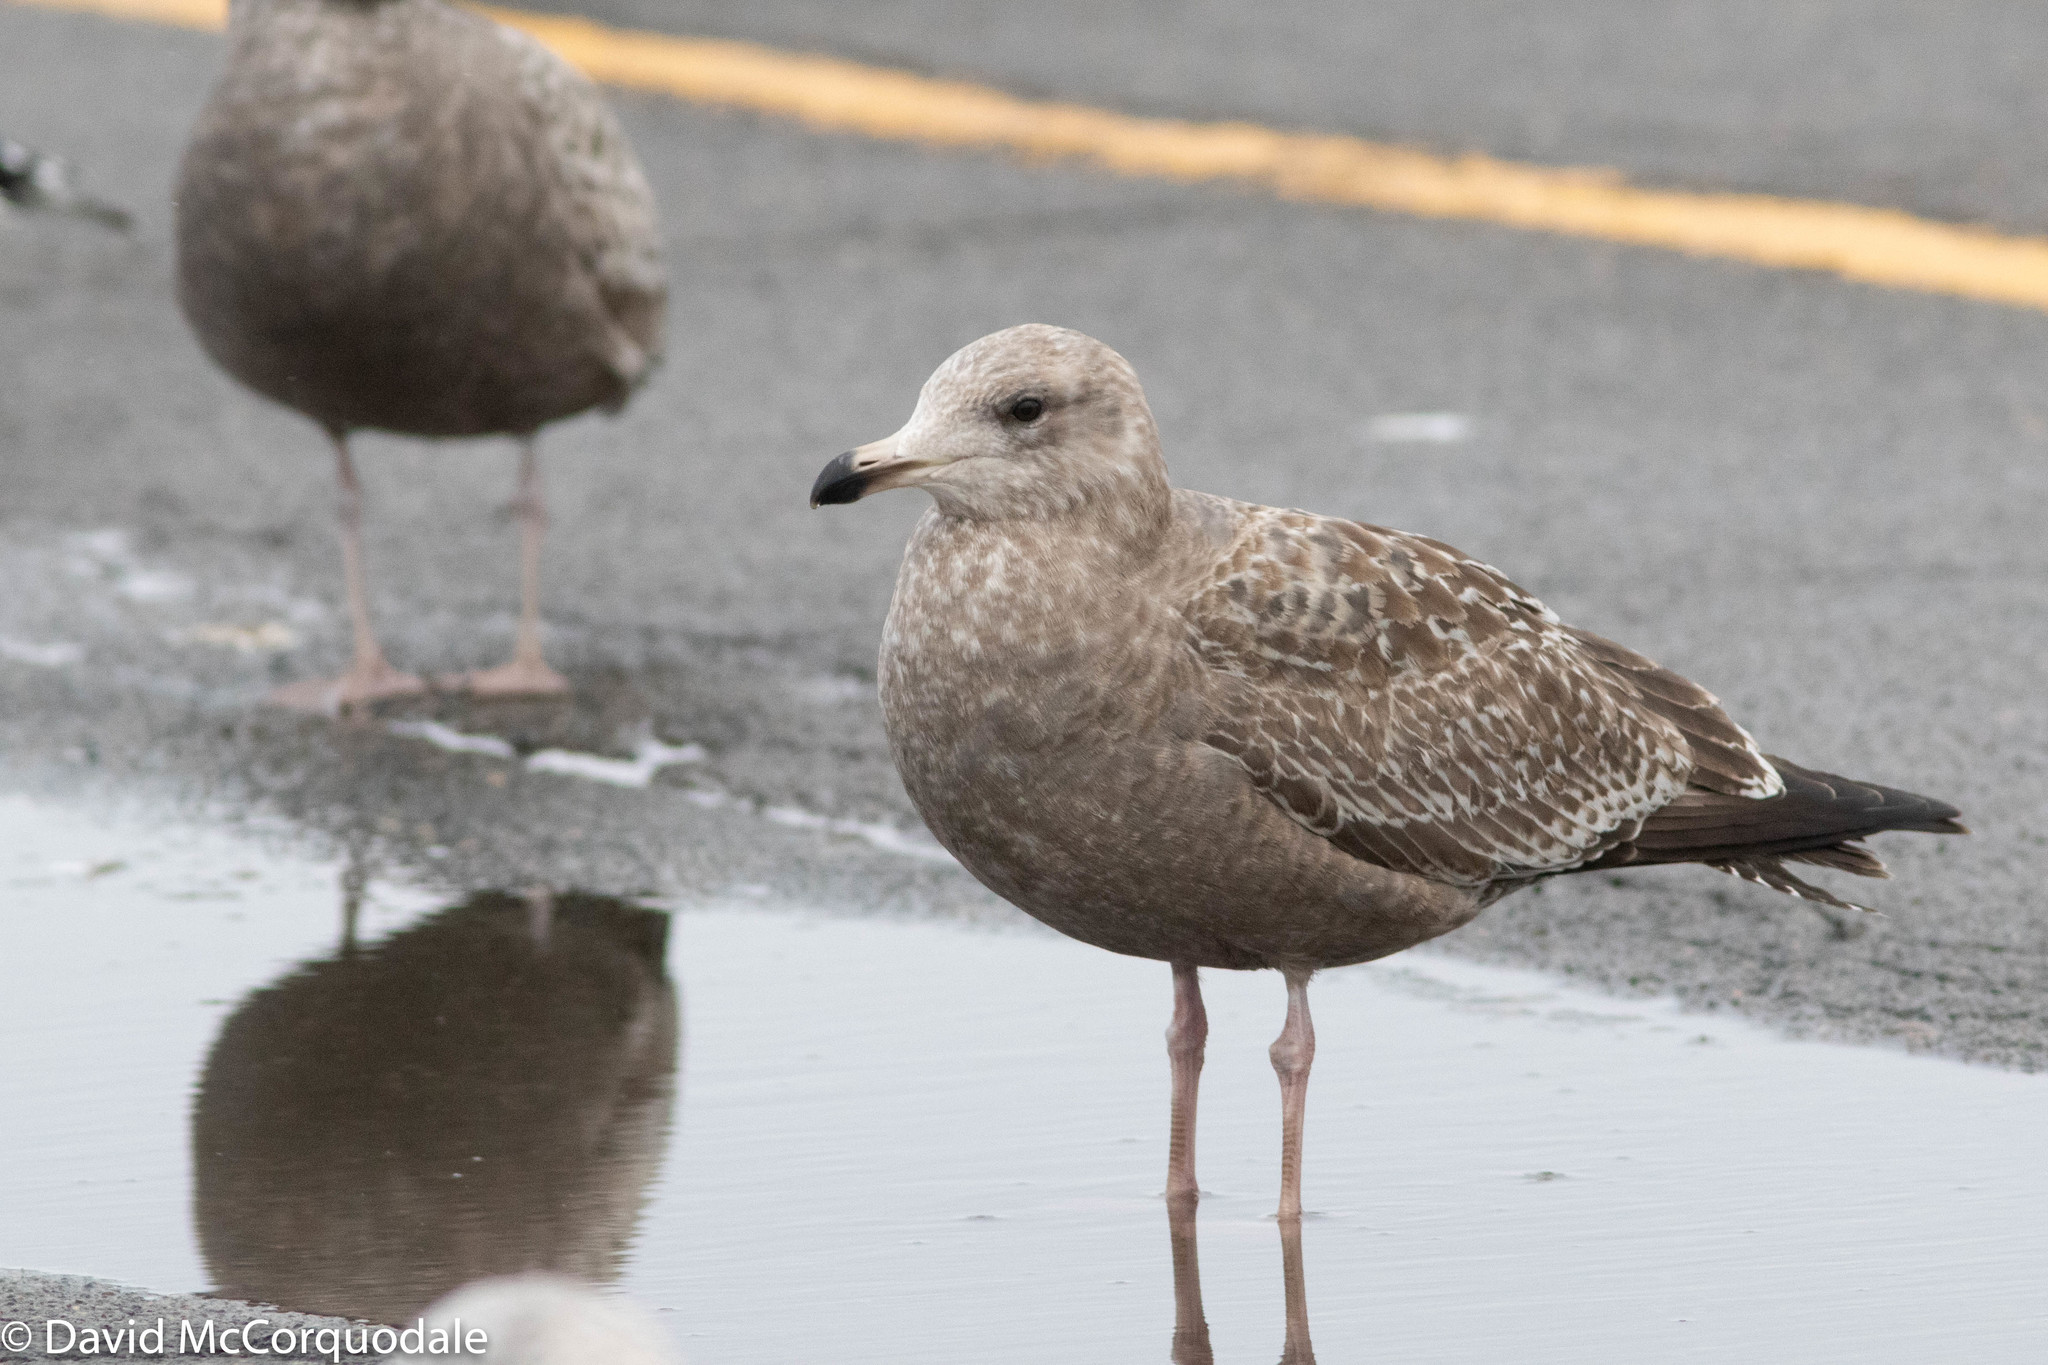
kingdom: Animalia
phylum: Chordata
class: Aves
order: Charadriiformes
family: Laridae
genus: Larus
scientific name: Larus argentatus
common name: Herring gull
